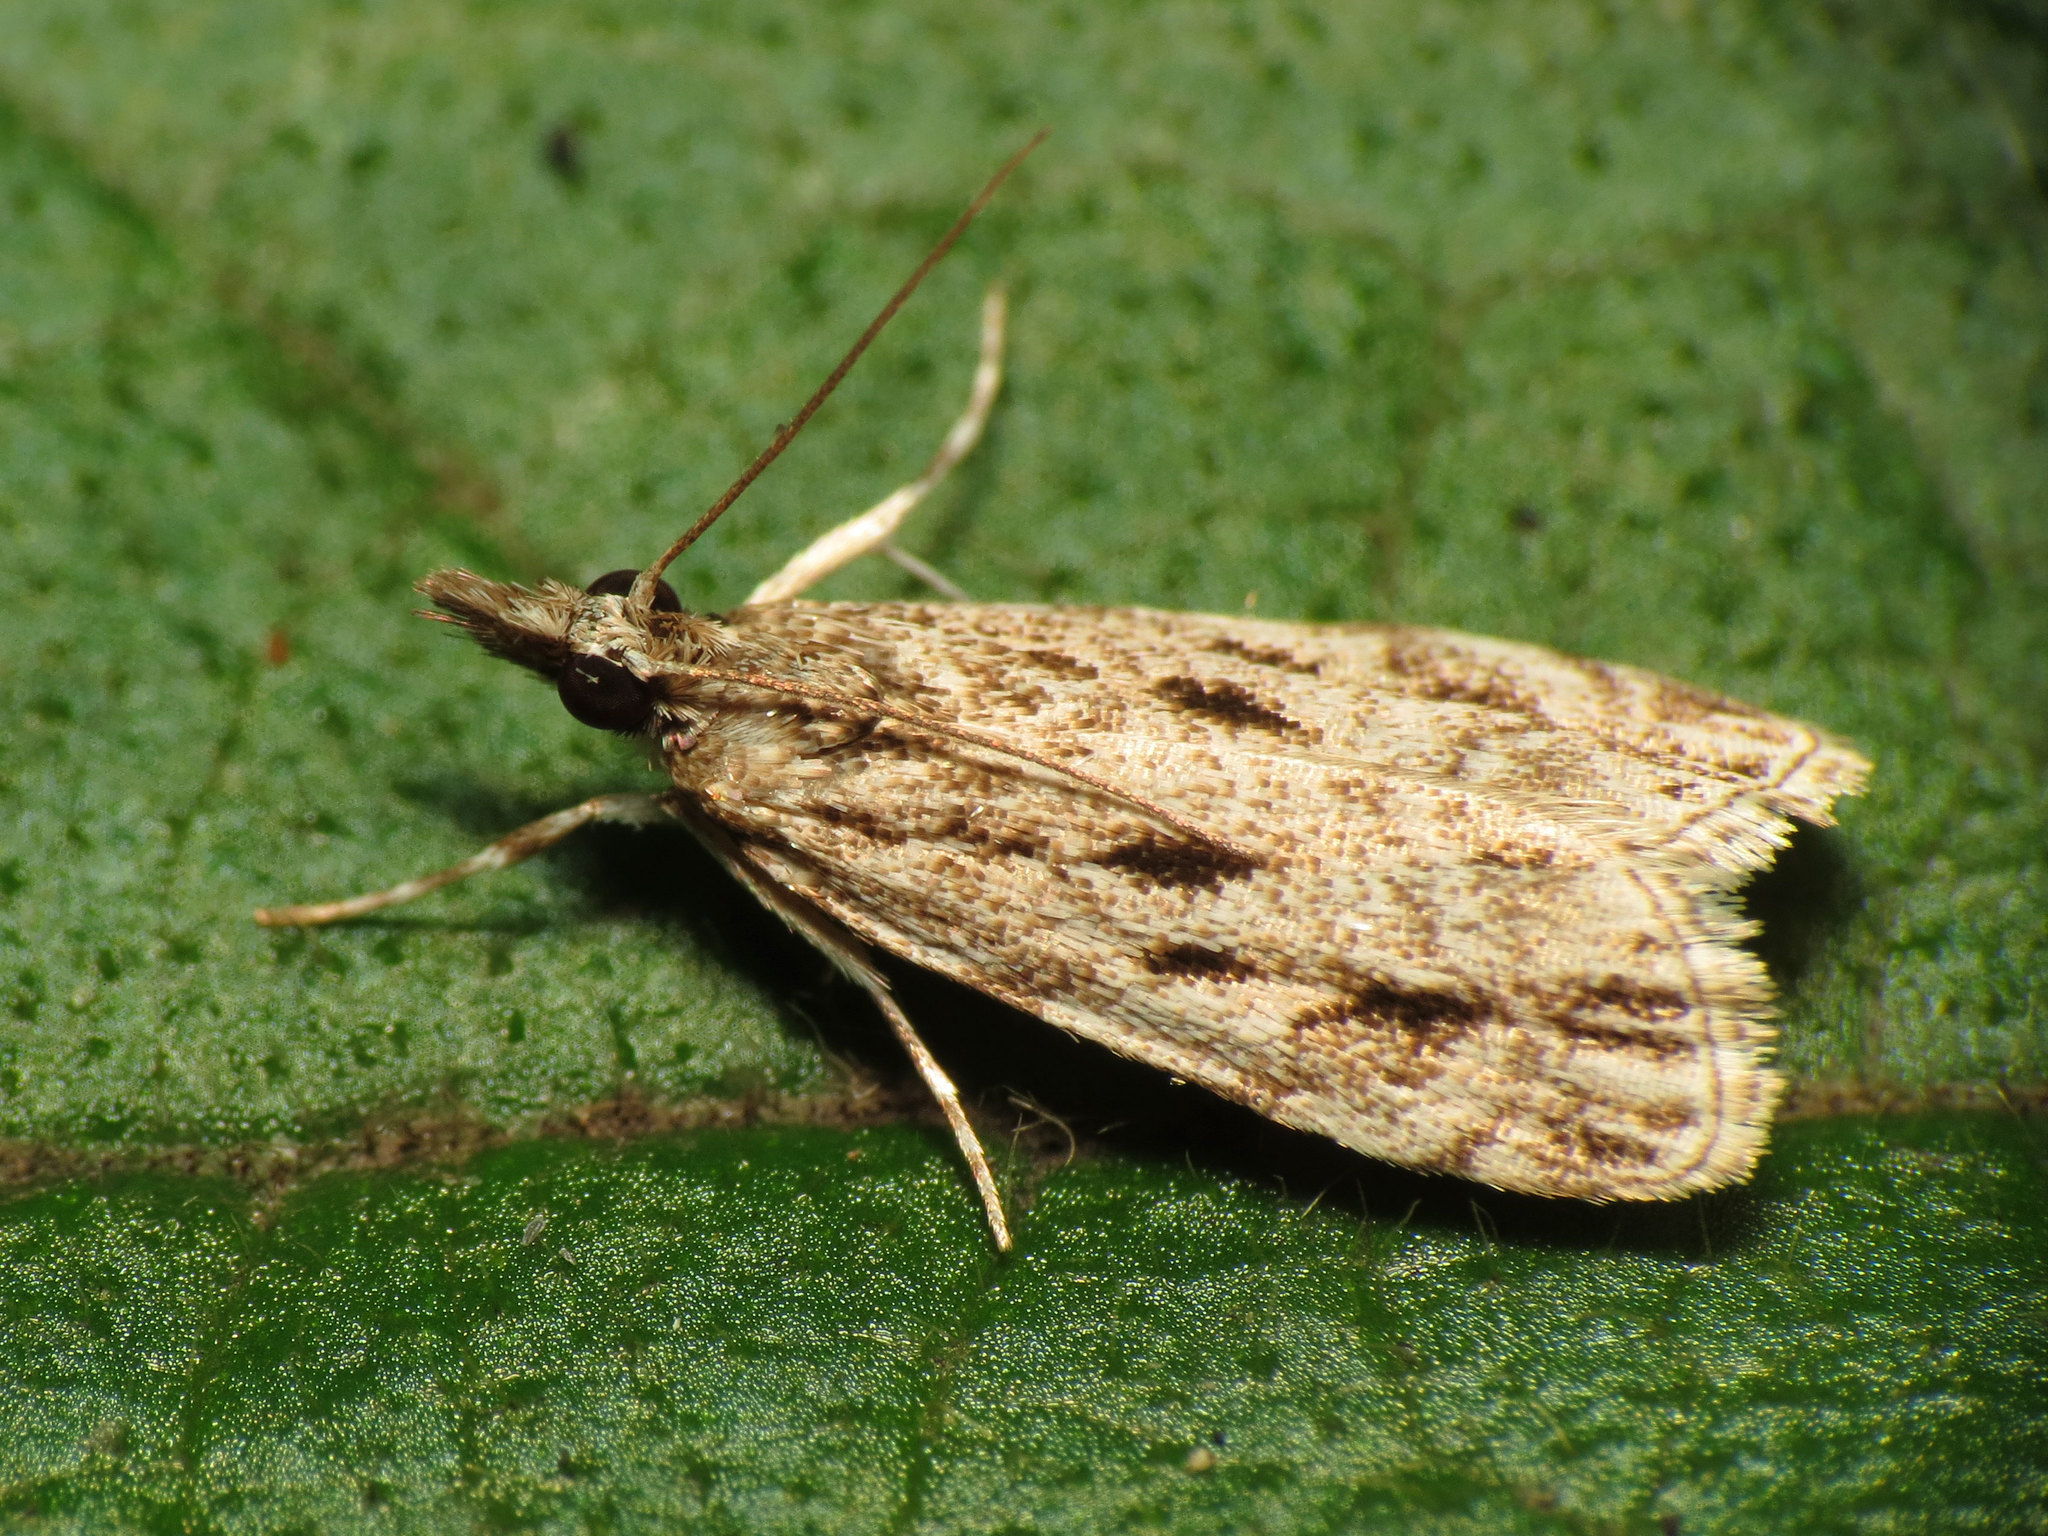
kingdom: Animalia
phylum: Arthropoda
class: Insecta
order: Lepidoptera
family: Crambidae
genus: Eudonia
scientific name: Eudonia strigalis
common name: Striped eudonia moth
